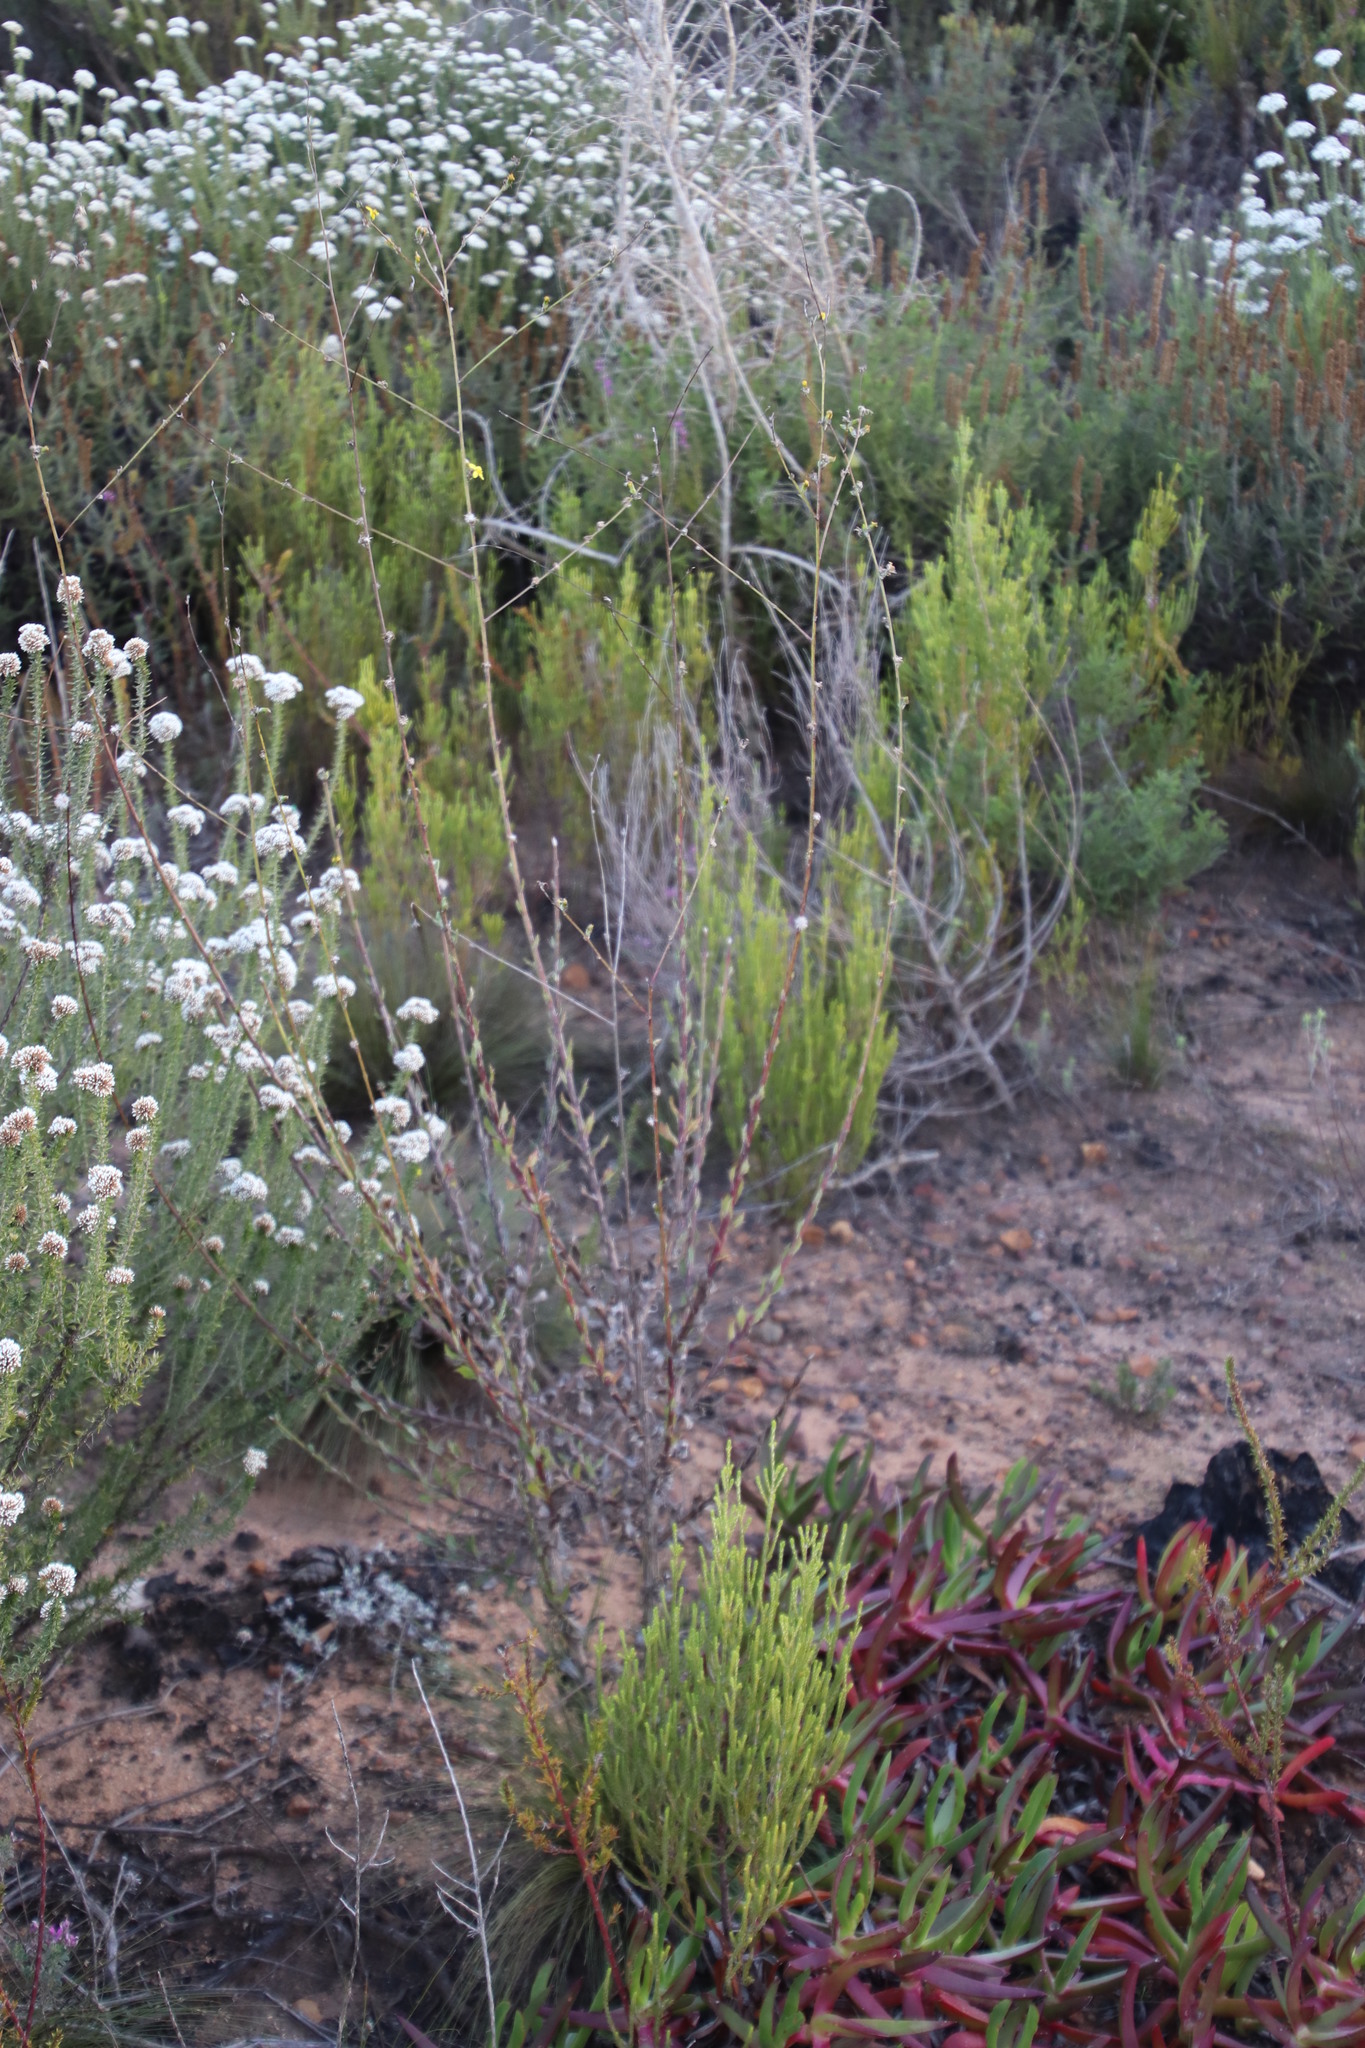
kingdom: Plantae
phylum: Tracheophyta
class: Magnoliopsida
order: Asterales
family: Asteraceae
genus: Senecio
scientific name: Senecio pubigerus
